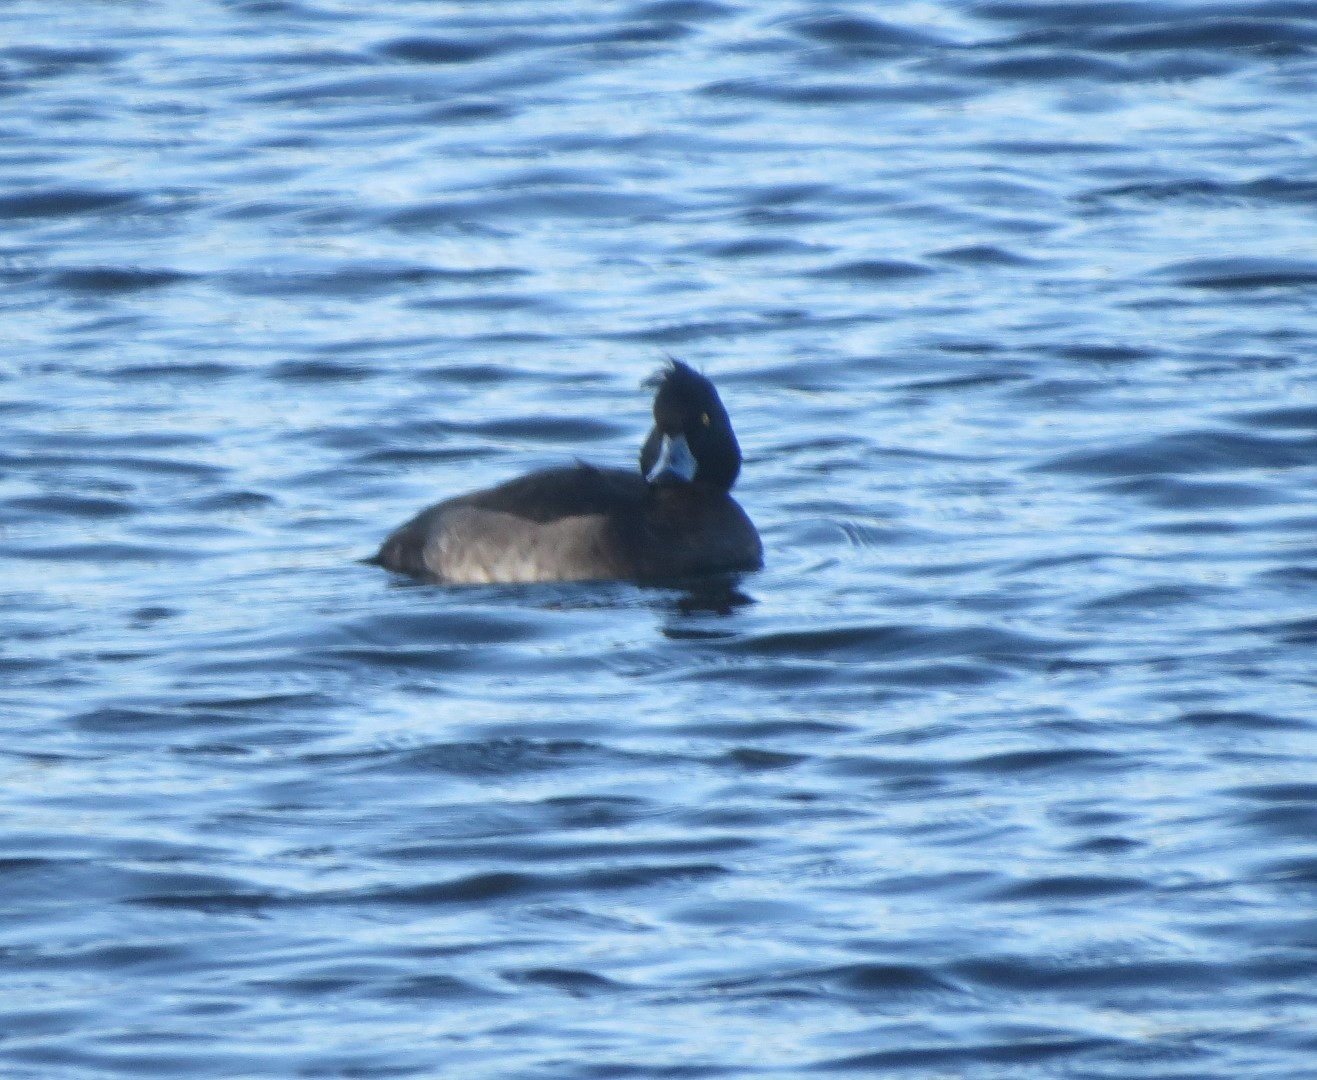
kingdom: Animalia
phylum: Chordata
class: Aves
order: Anseriformes
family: Anatidae
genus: Aythya
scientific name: Aythya fuligula
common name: Tufted duck
